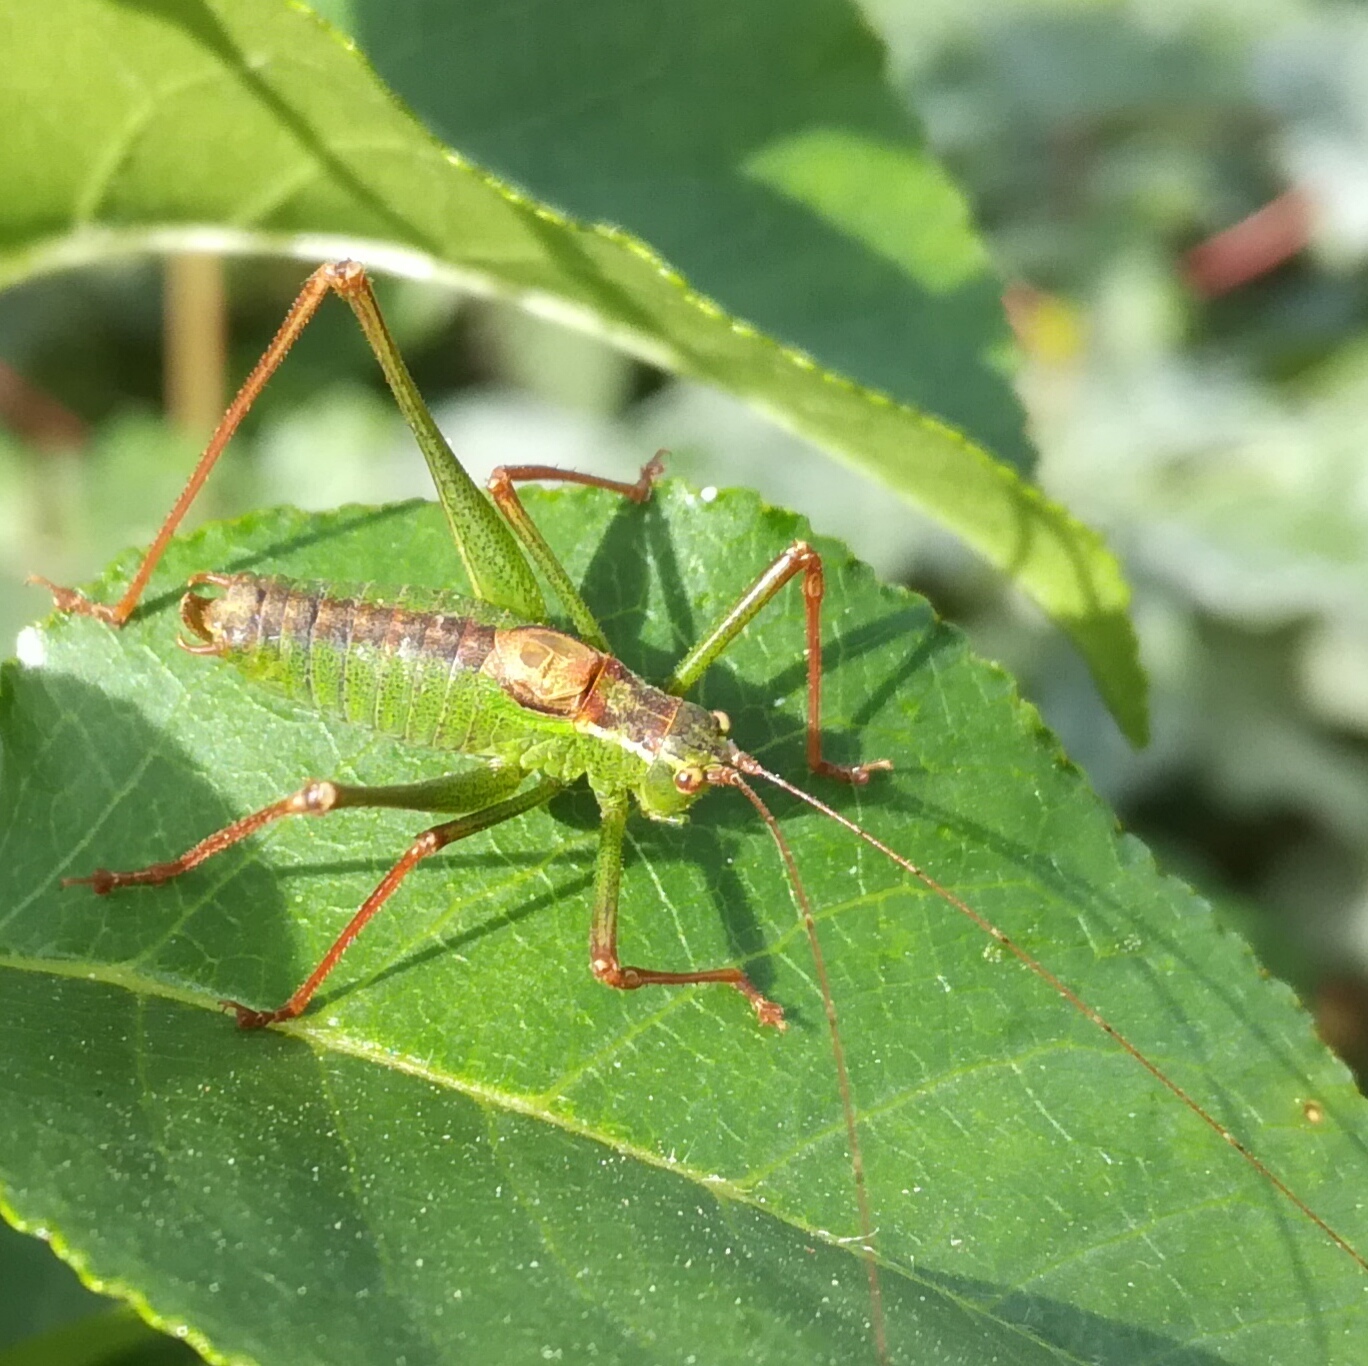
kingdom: Animalia
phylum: Arthropoda
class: Insecta
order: Orthoptera
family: Tettigoniidae
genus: Leptophyes
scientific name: Leptophyes punctatissima
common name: Speckled bush-cricket
